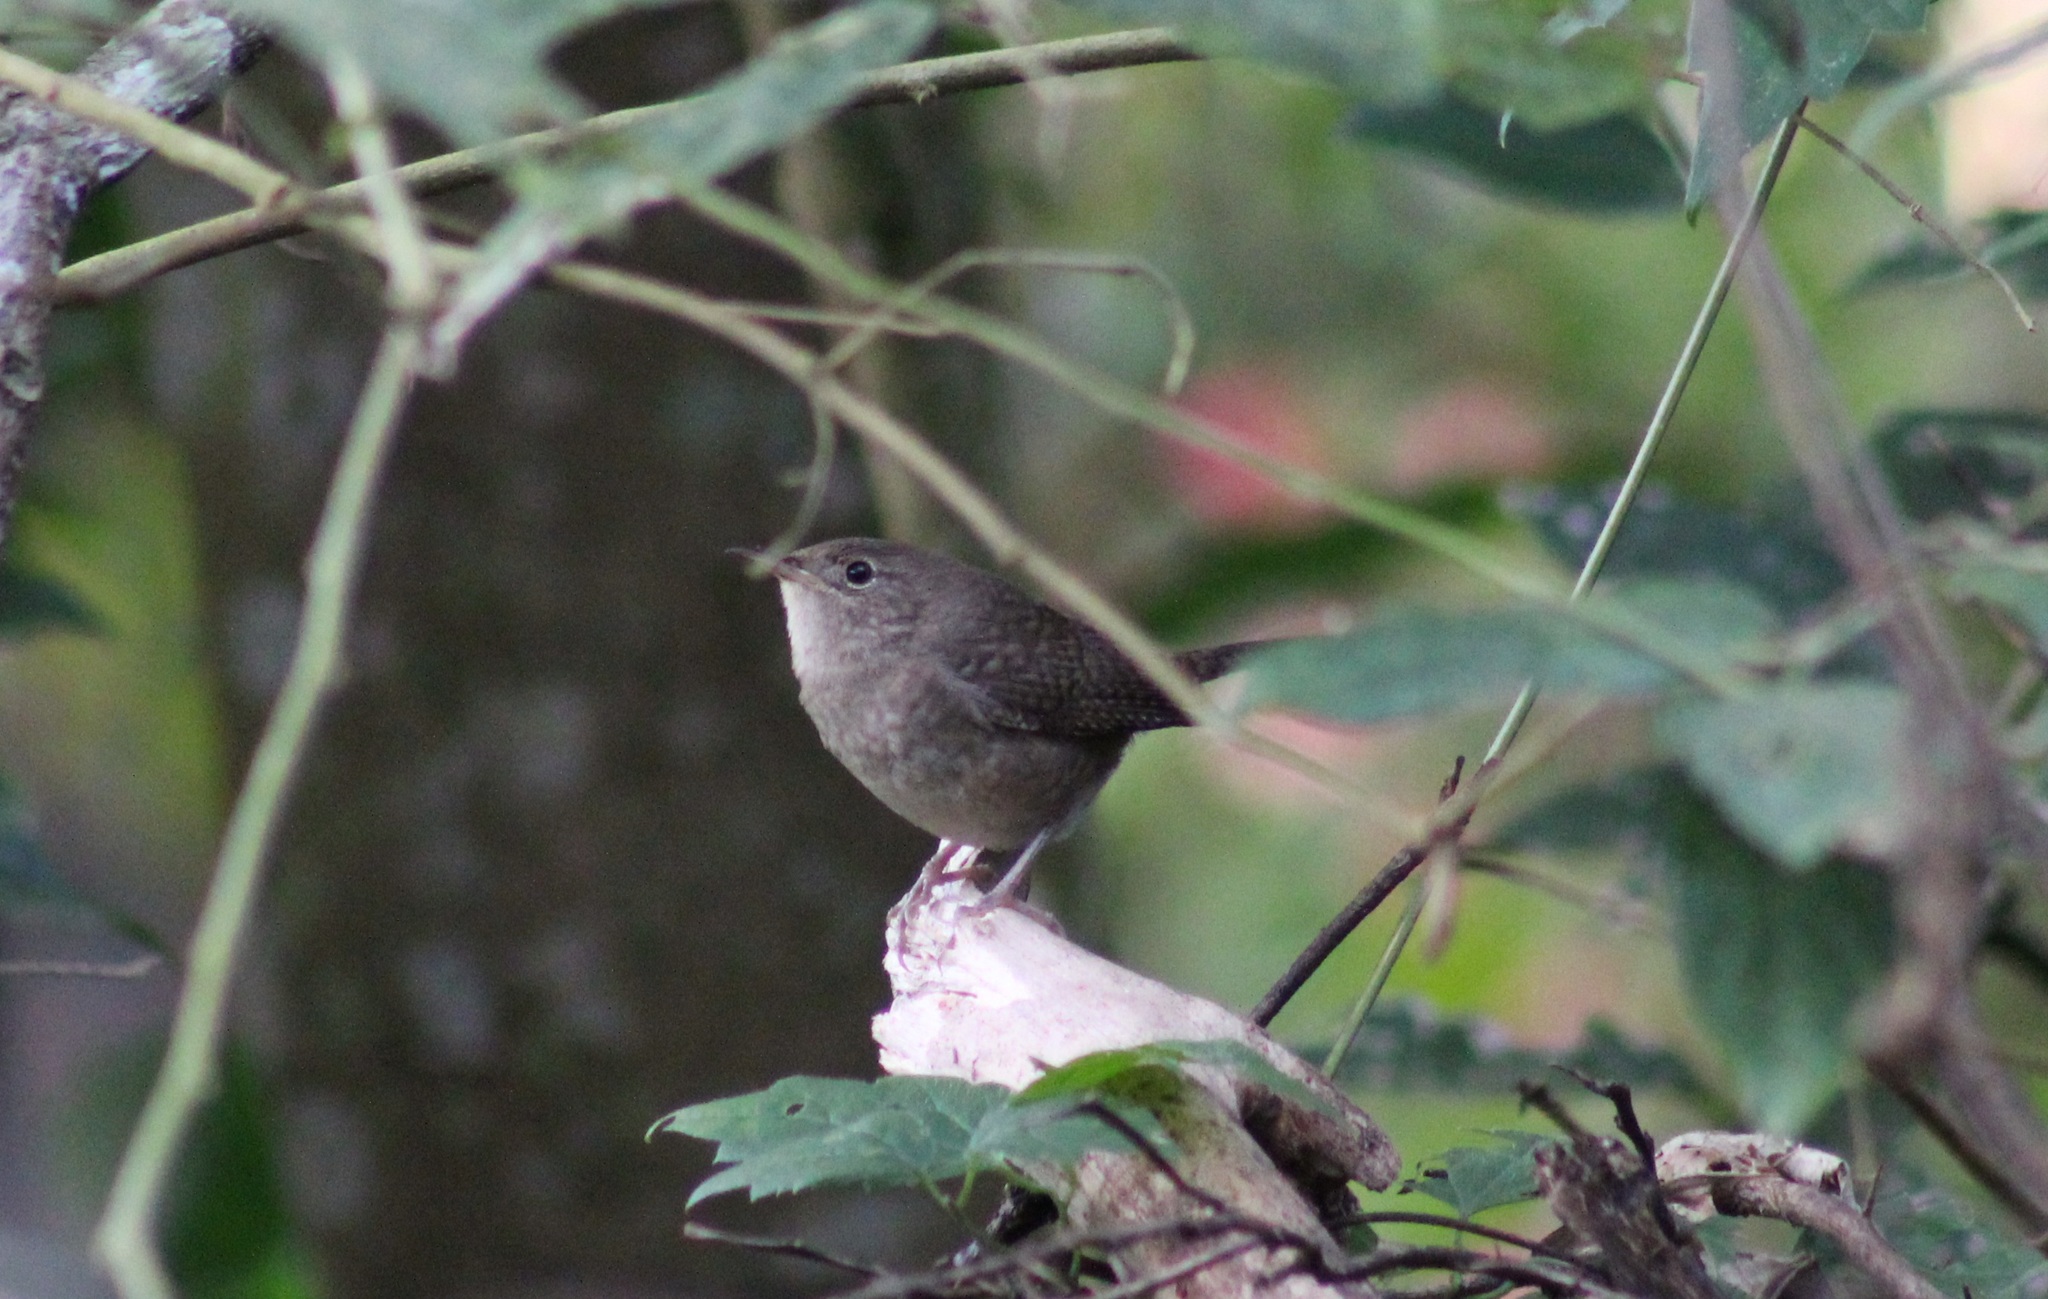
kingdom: Animalia
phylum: Chordata
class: Aves
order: Passeriformes
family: Troglodytidae
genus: Troglodytes
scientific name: Troglodytes aedon
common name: House wren
